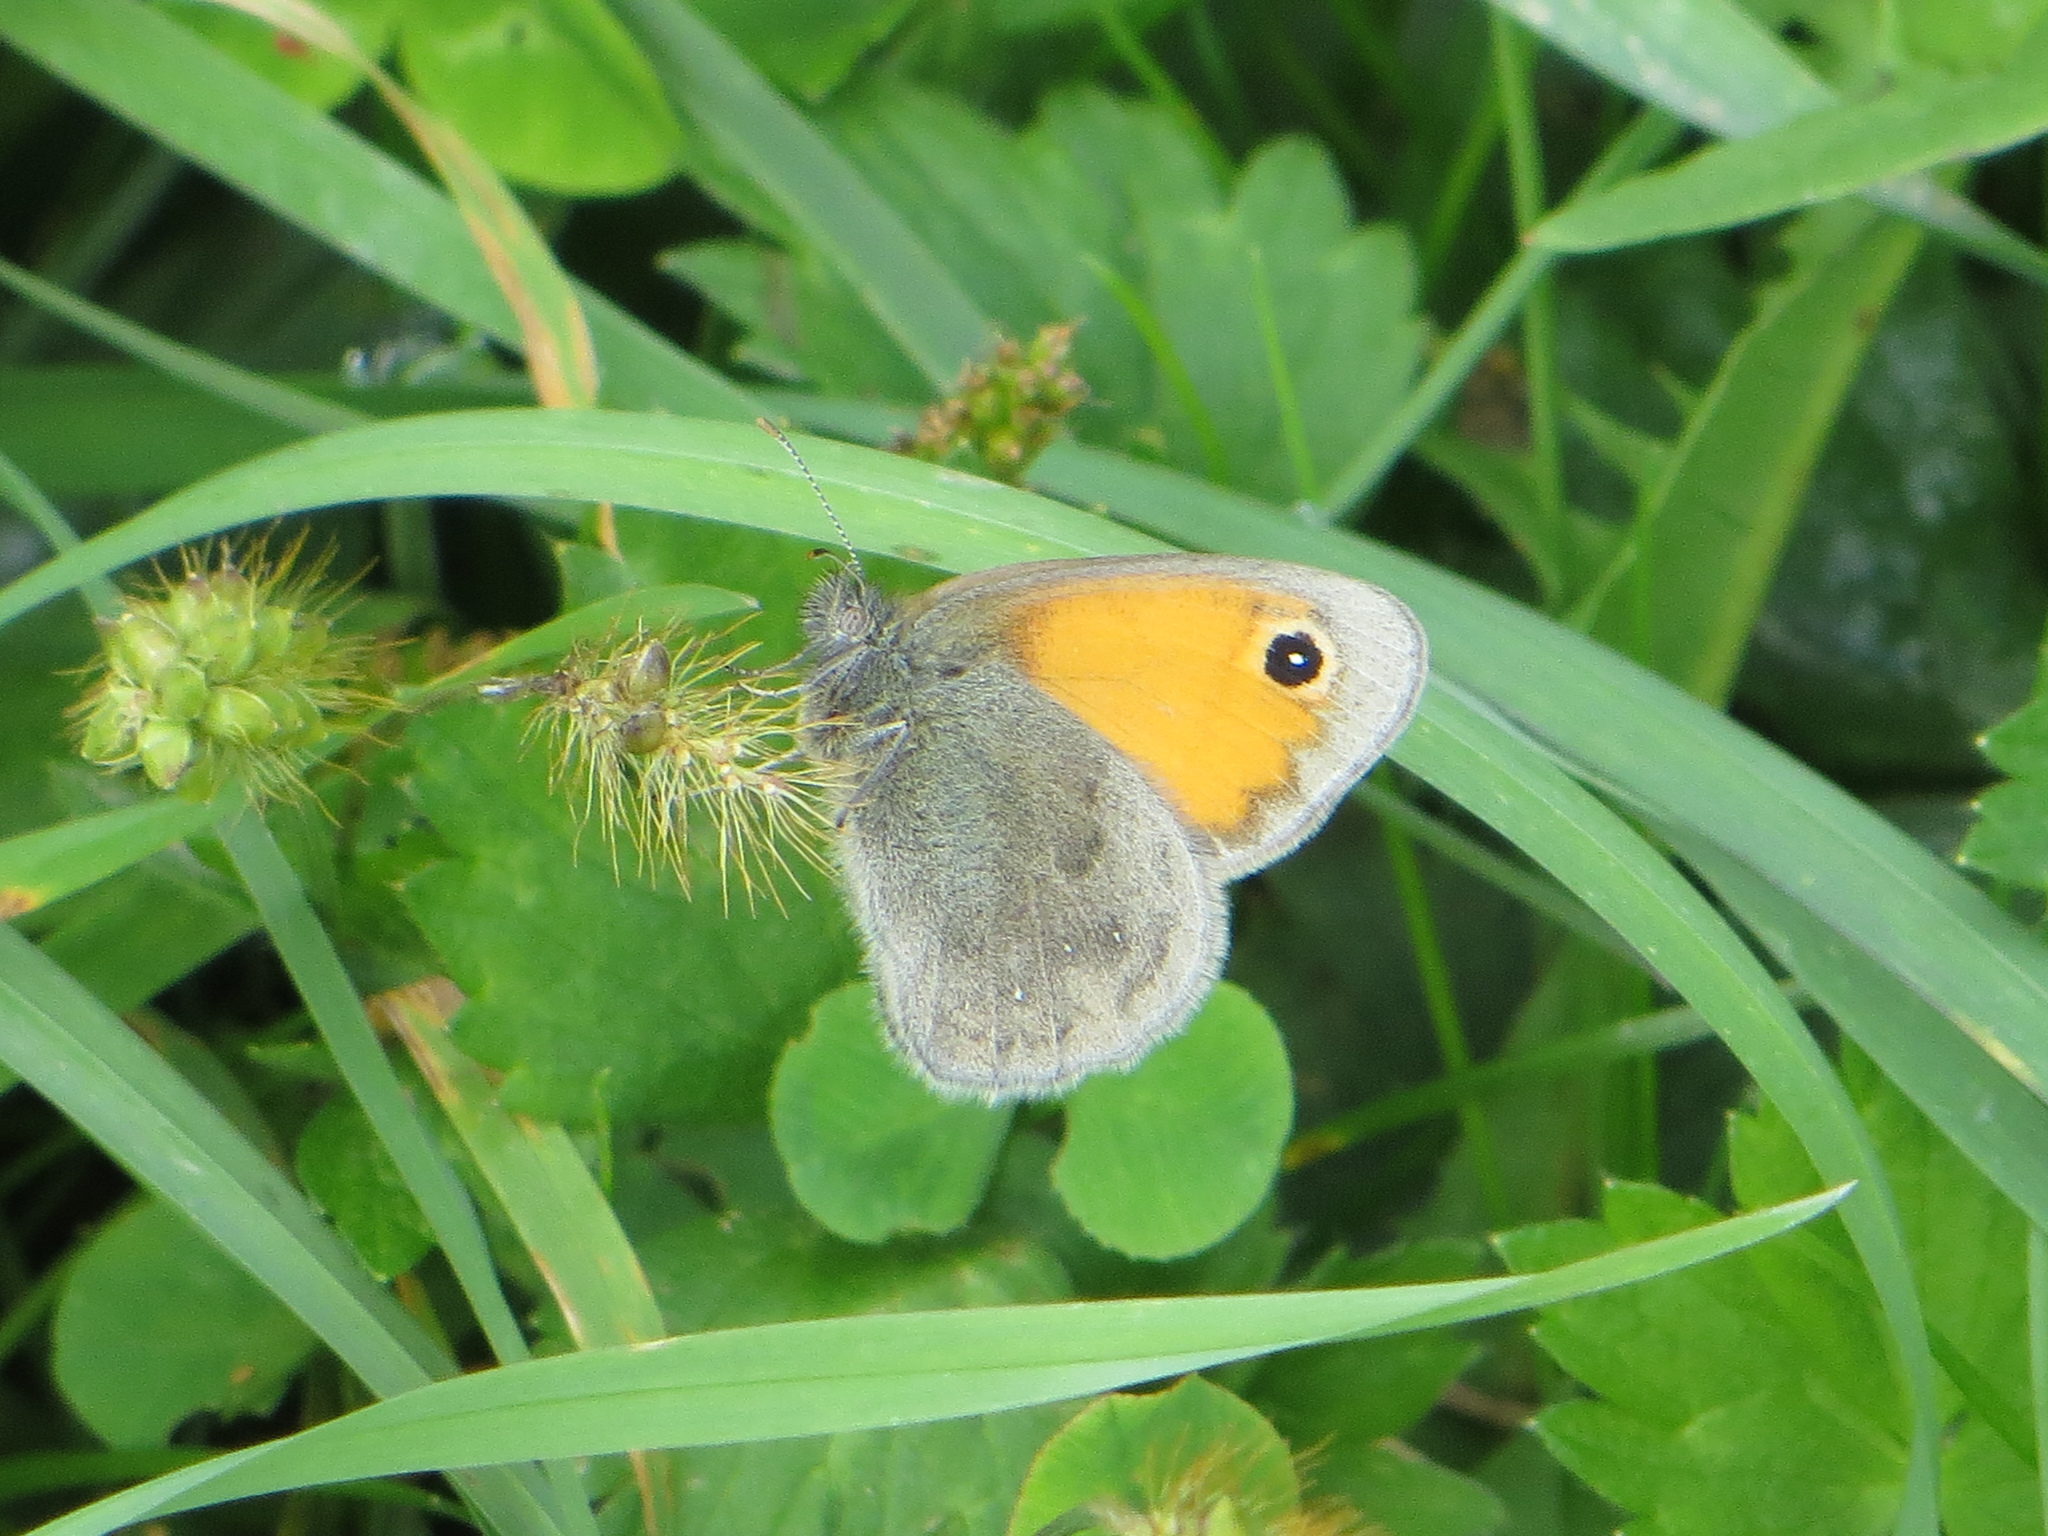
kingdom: Animalia
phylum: Arthropoda
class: Insecta
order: Lepidoptera
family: Nymphalidae
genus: Coenonympha
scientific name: Coenonympha pamphilus
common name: Small heath
